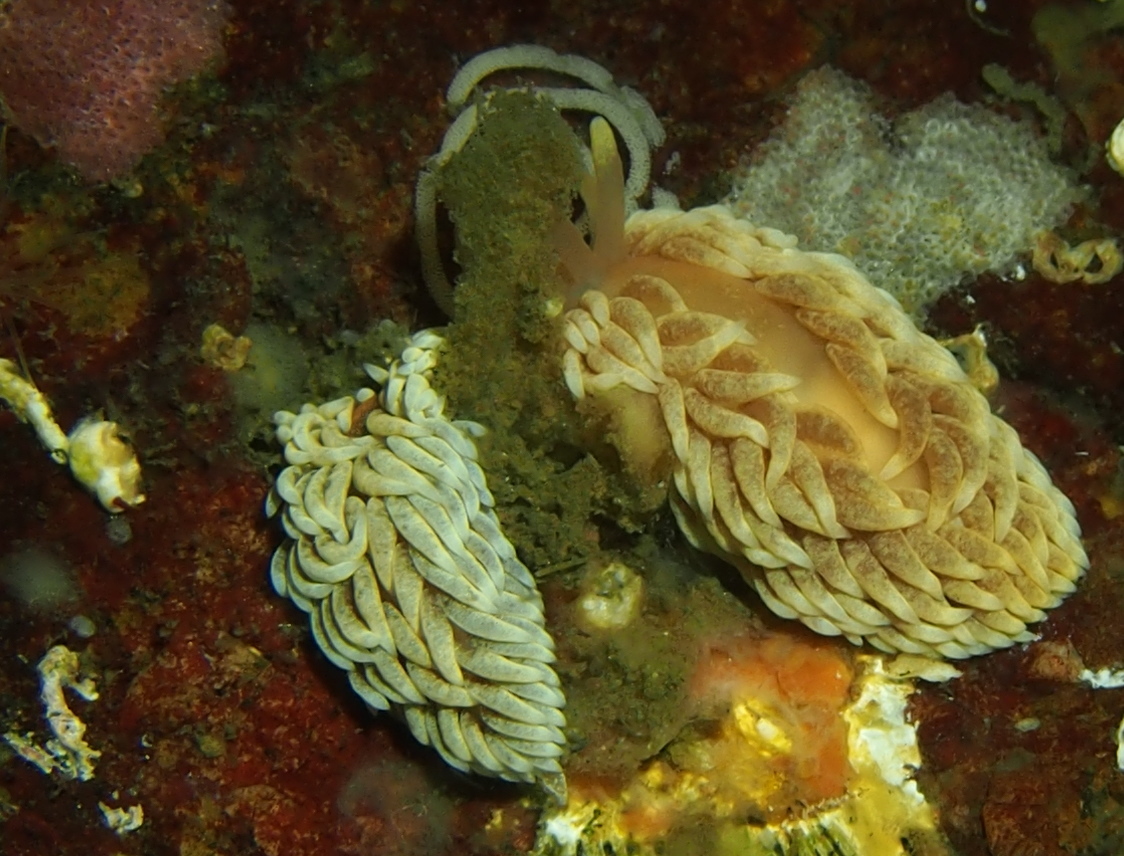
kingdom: Animalia
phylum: Mollusca
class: Gastropoda
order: Nudibranchia
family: Aeolidiidae
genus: Aeolidiella
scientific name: Aeolidiella glauca
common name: Orange-brown aeolid
